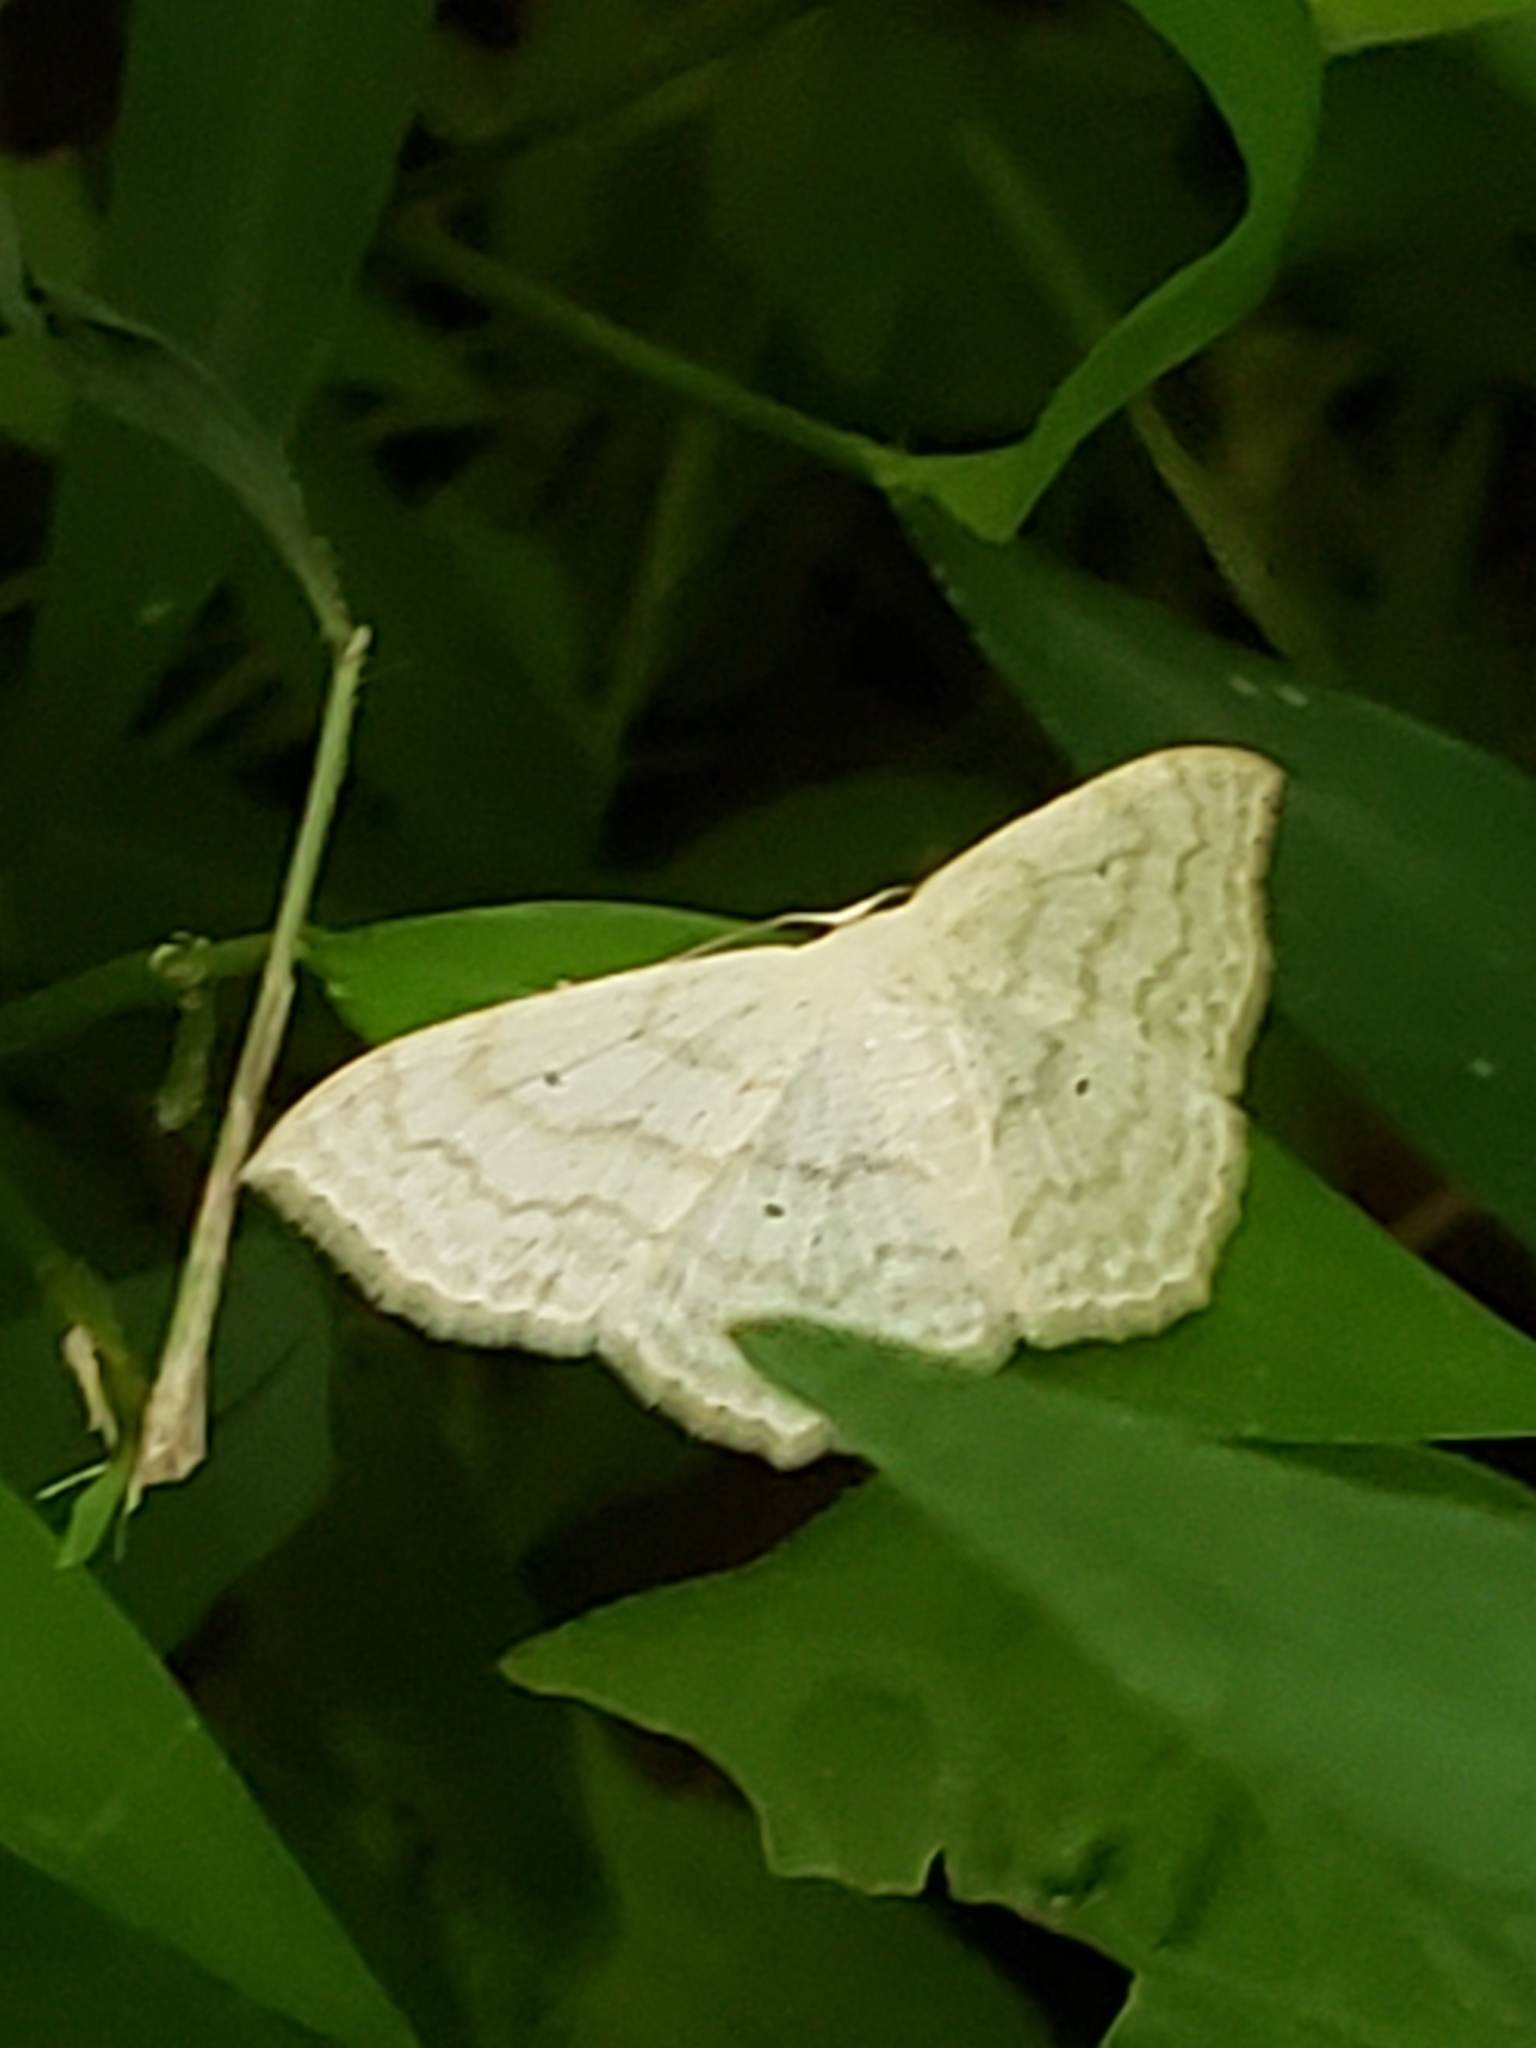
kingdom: Animalia
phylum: Arthropoda
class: Insecta
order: Lepidoptera
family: Geometridae
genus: Scopula
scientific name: Scopula limboundata
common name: Large lace border
